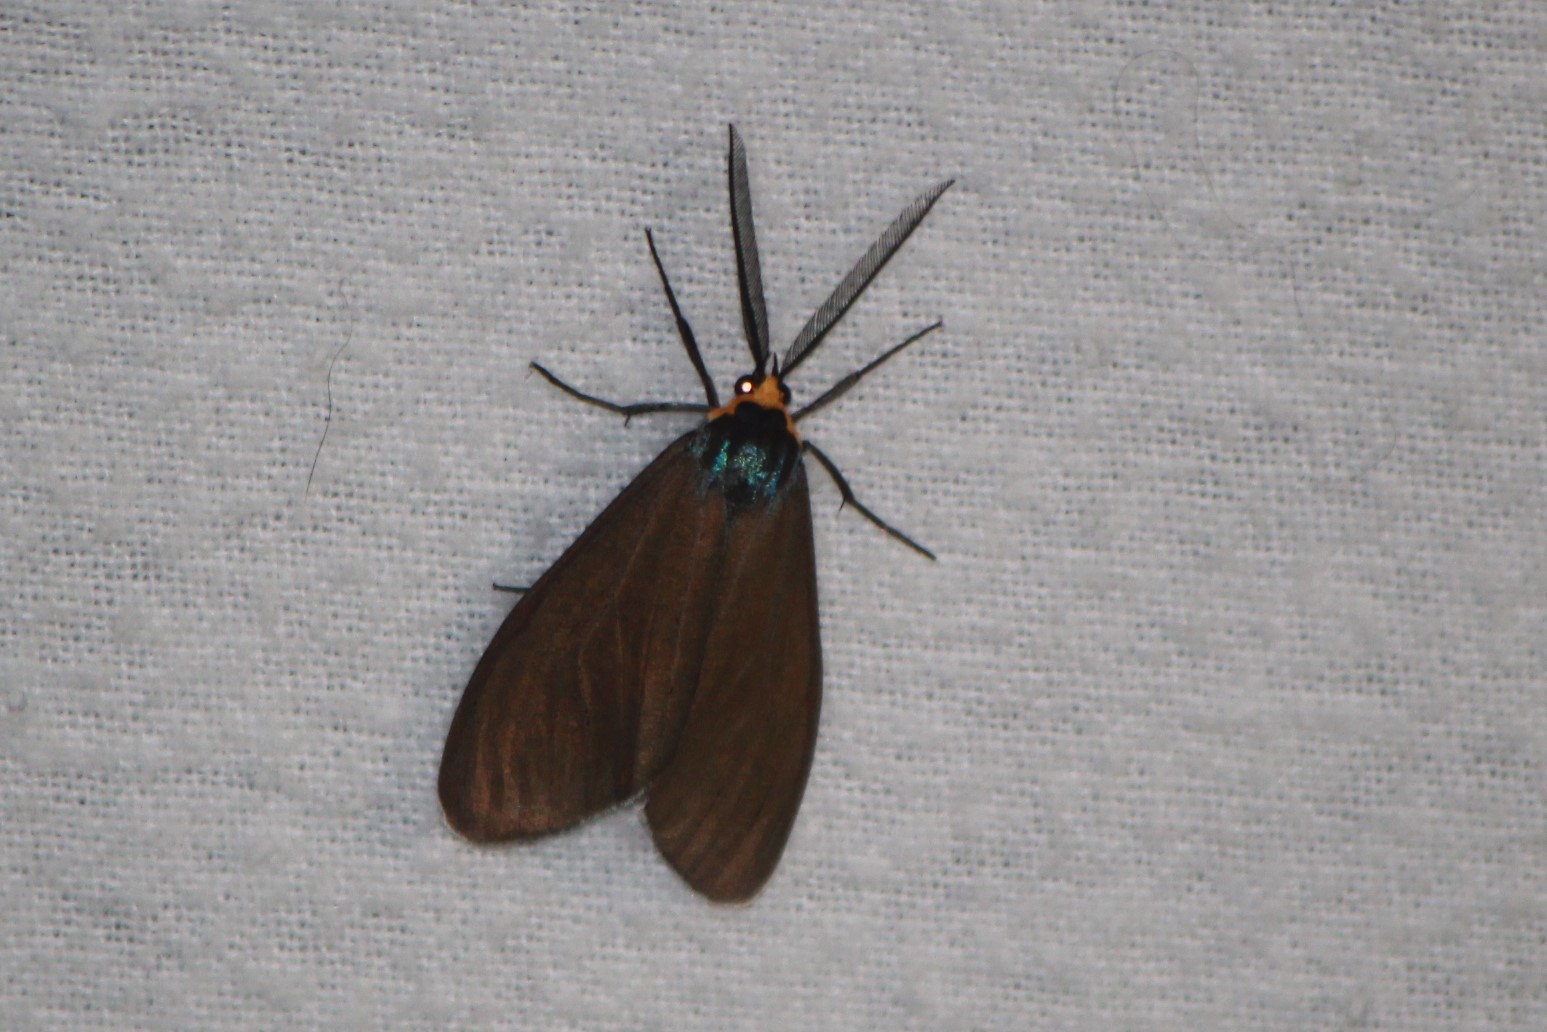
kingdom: Animalia
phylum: Arthropoda
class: Insecta
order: Lepidoptera
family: Erebidae
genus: Ctenucha
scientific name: Ctenucha virginica
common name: Virginia ctenucha moth
